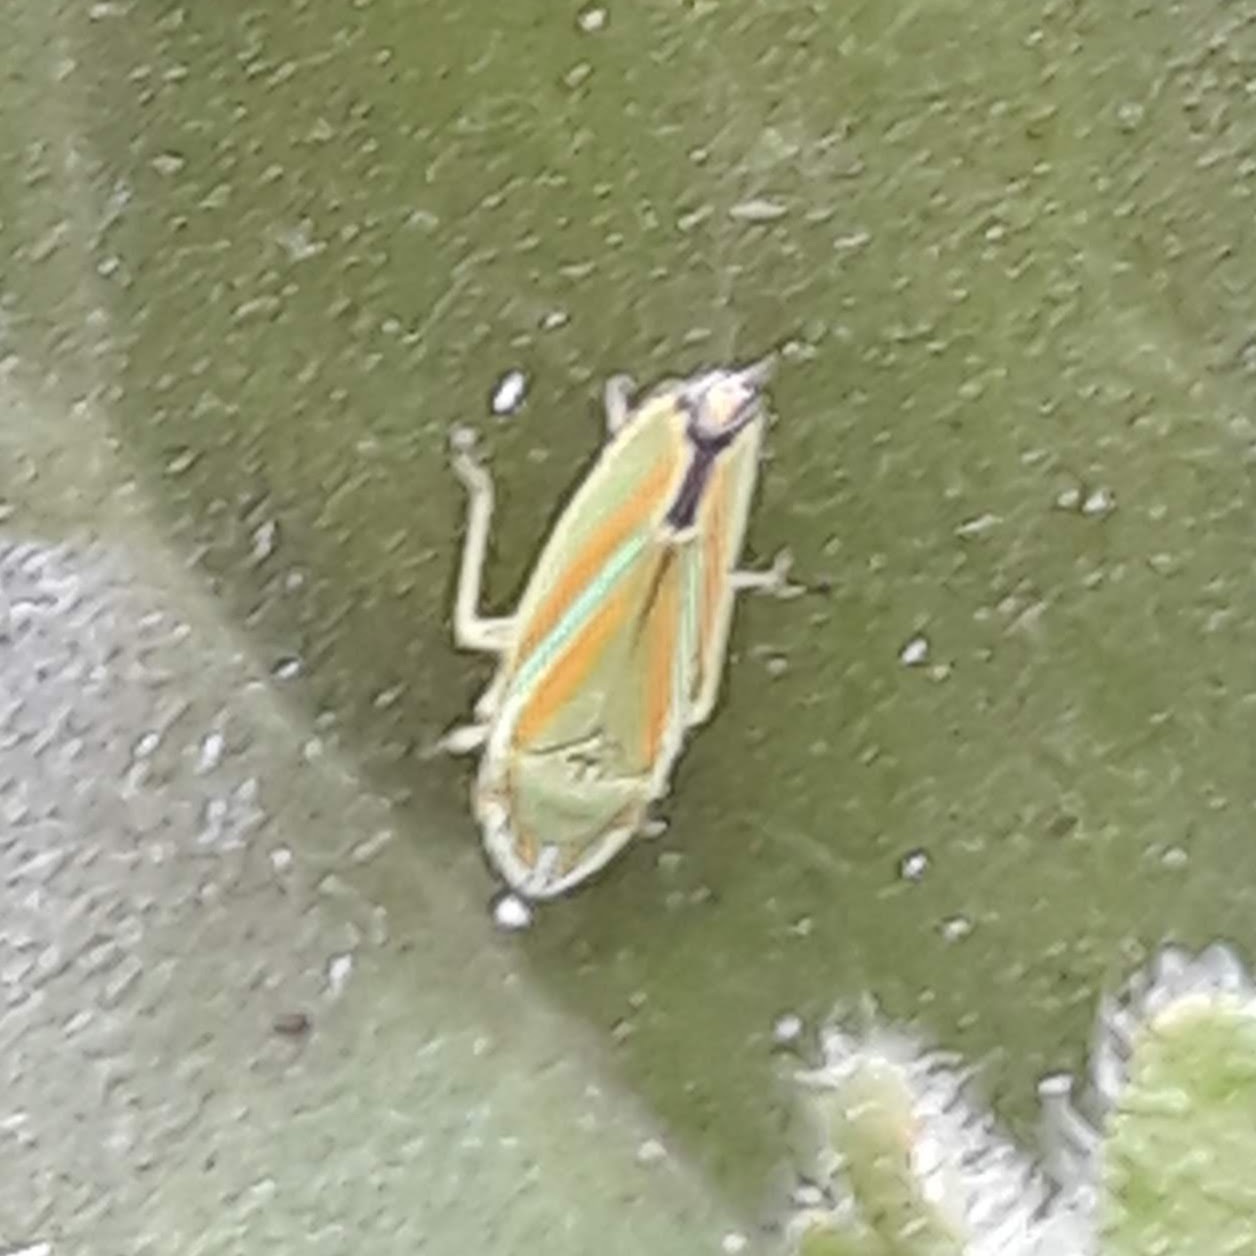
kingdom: Animalia
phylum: Arthropoda
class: Insecta
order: Hemiptera
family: Cicadellidae
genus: Graphocephala
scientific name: Graphocephala versuta
